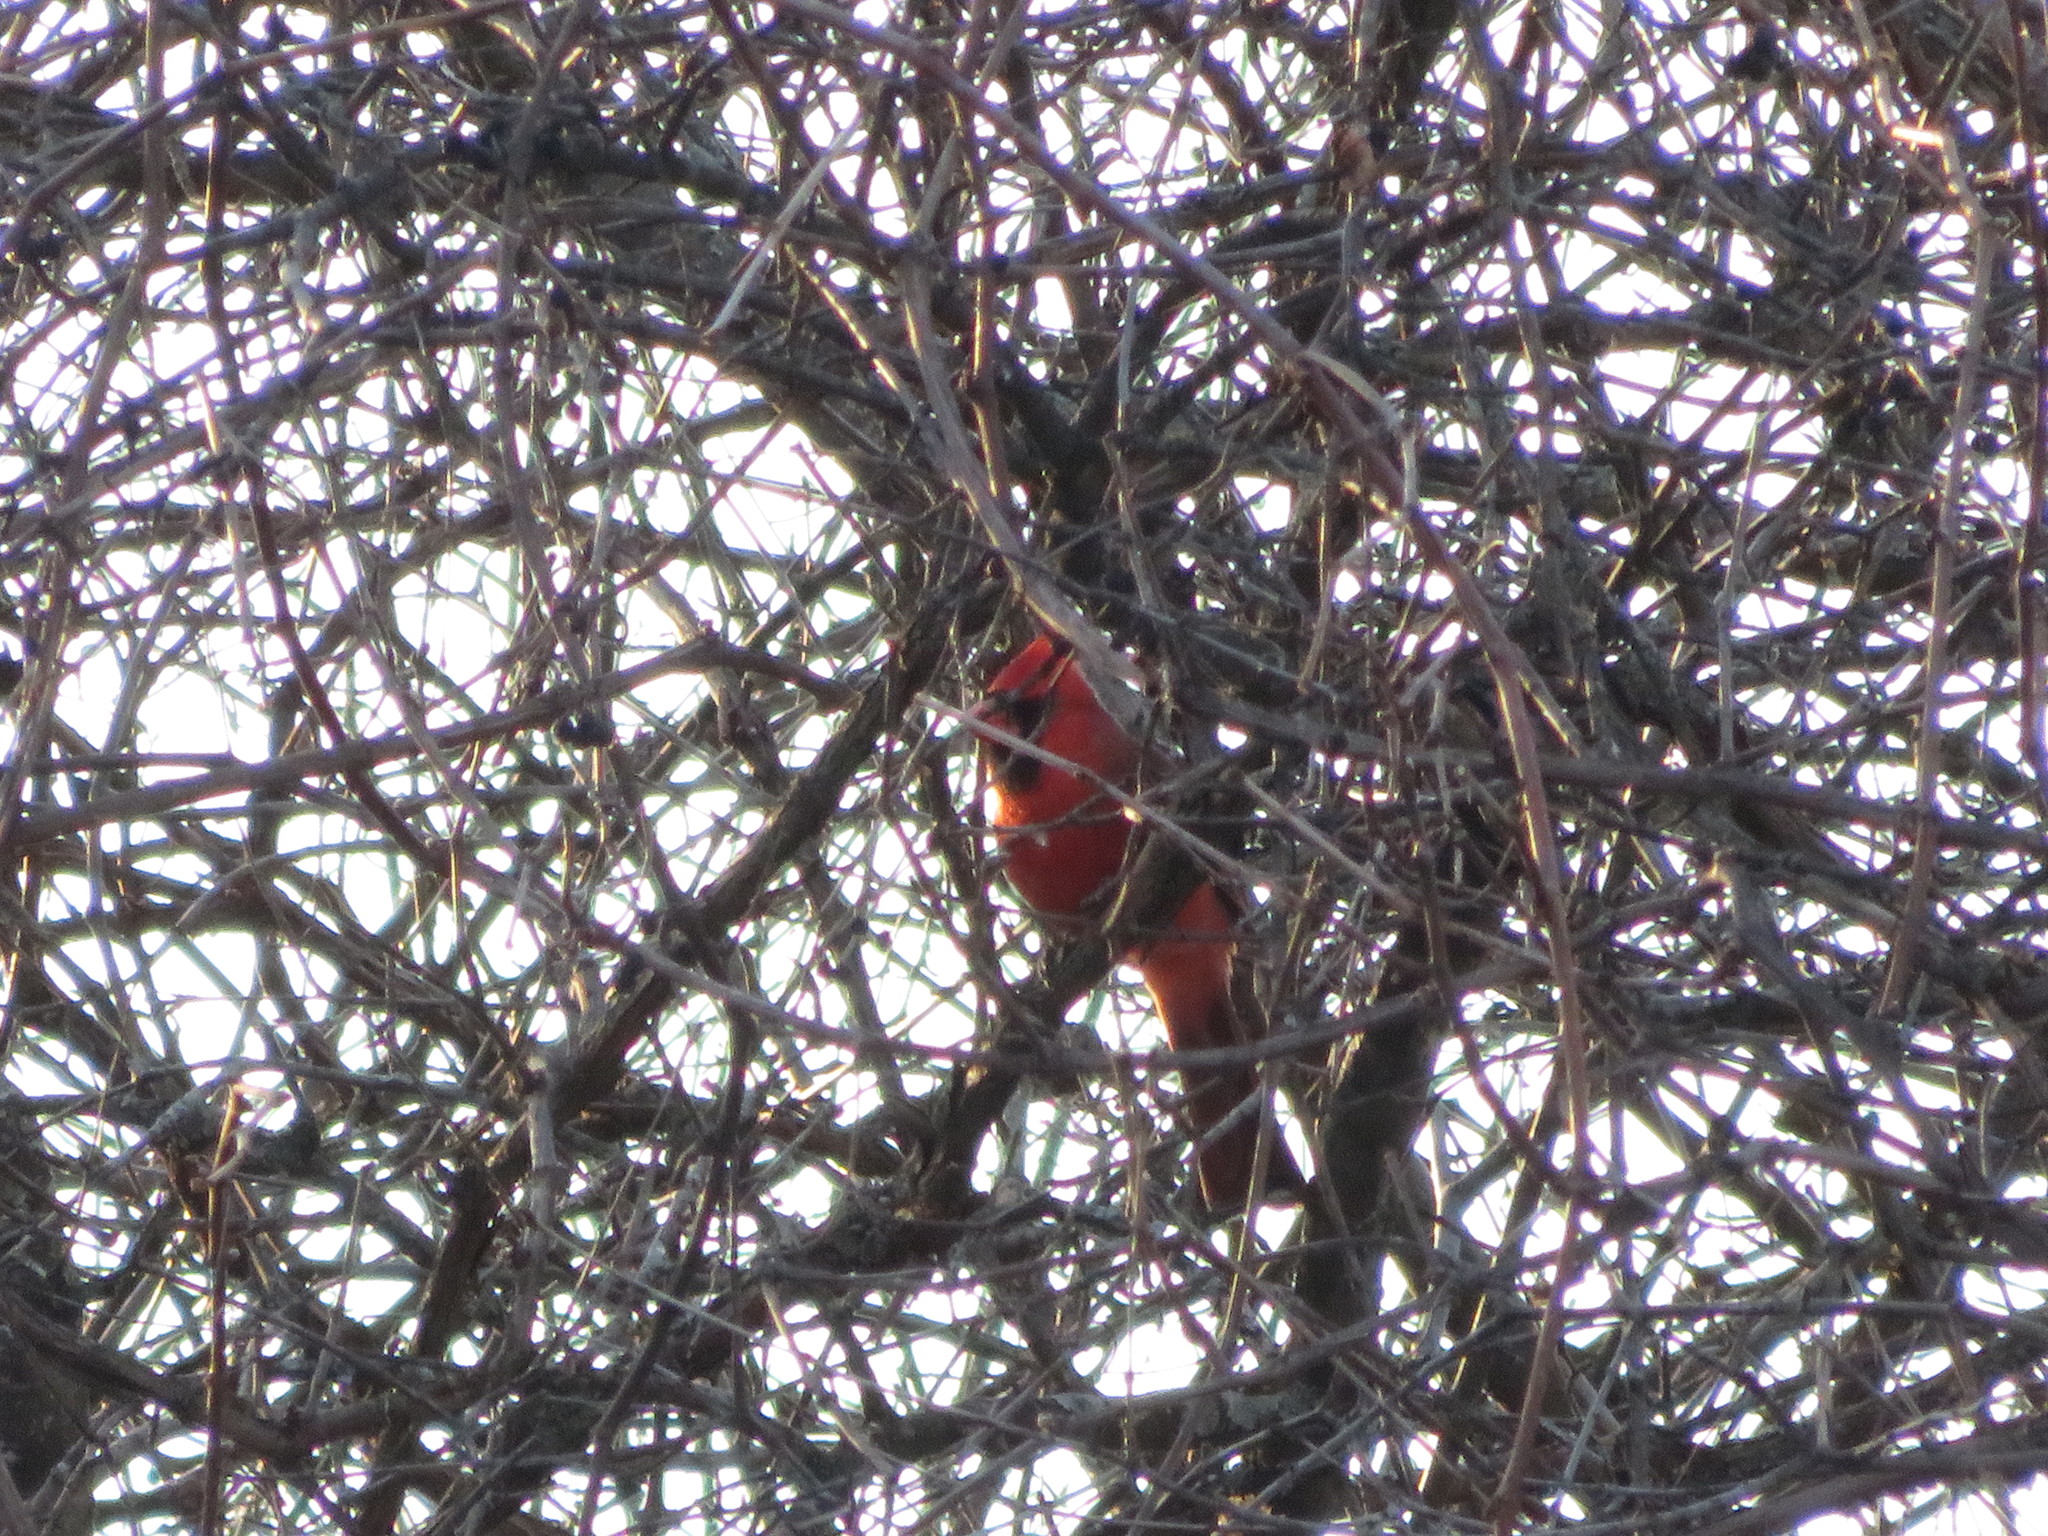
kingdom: Animalia
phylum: Chordata
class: Aves
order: Passeriformes
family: Cardinalidae
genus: Cardinalis
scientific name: Cardinalis cardinalis
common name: Northern cardinal
